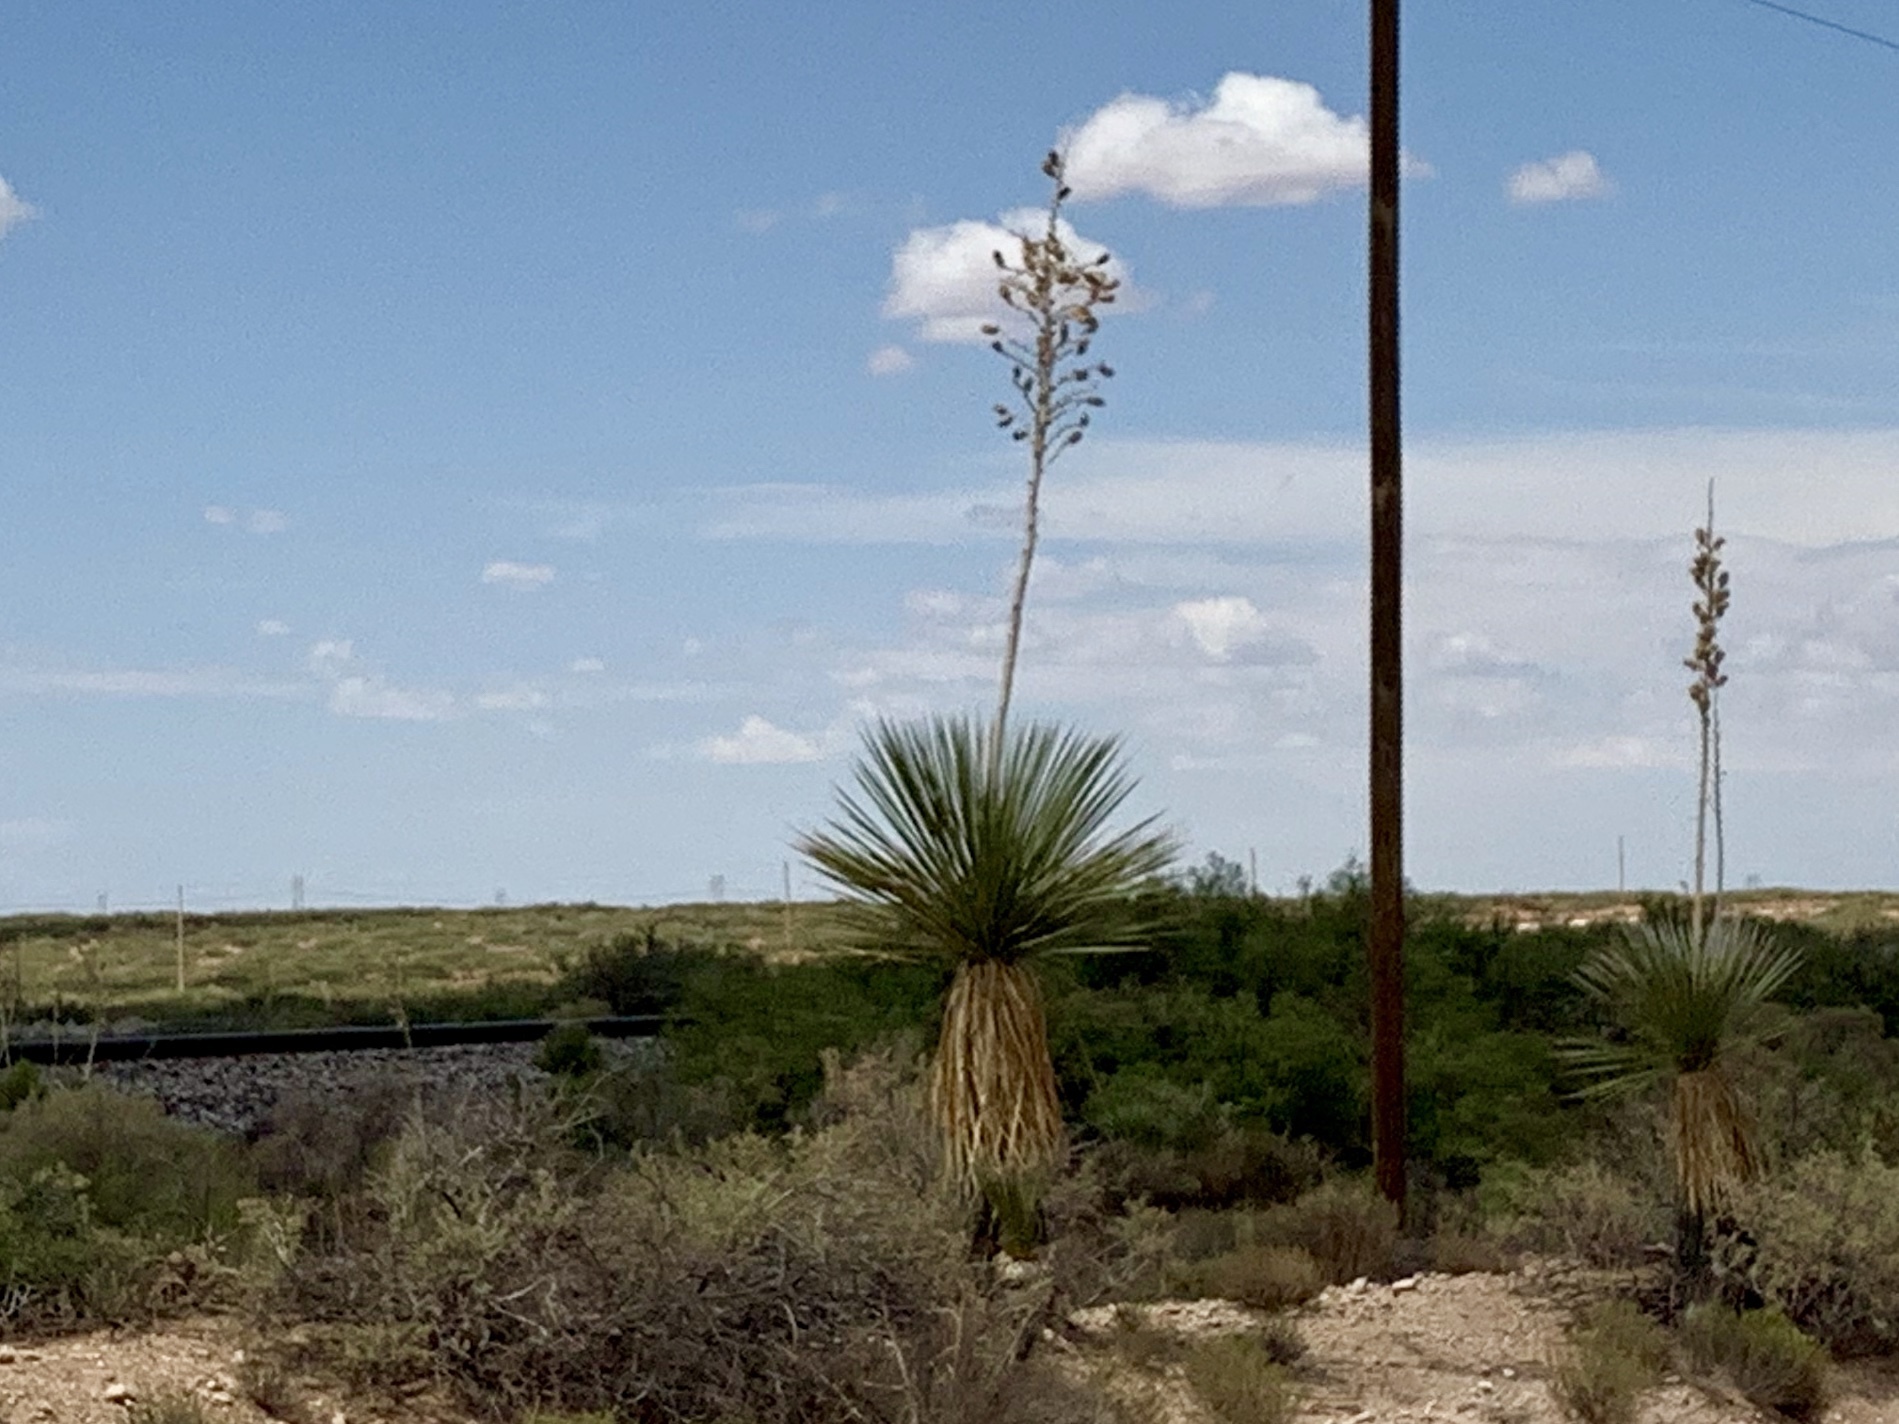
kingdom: Plantae
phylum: Tracheophyta
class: Liliopsida
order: Asparagales
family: Asparagaceae
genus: Yucca
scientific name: Yucca elata
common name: Palmella
